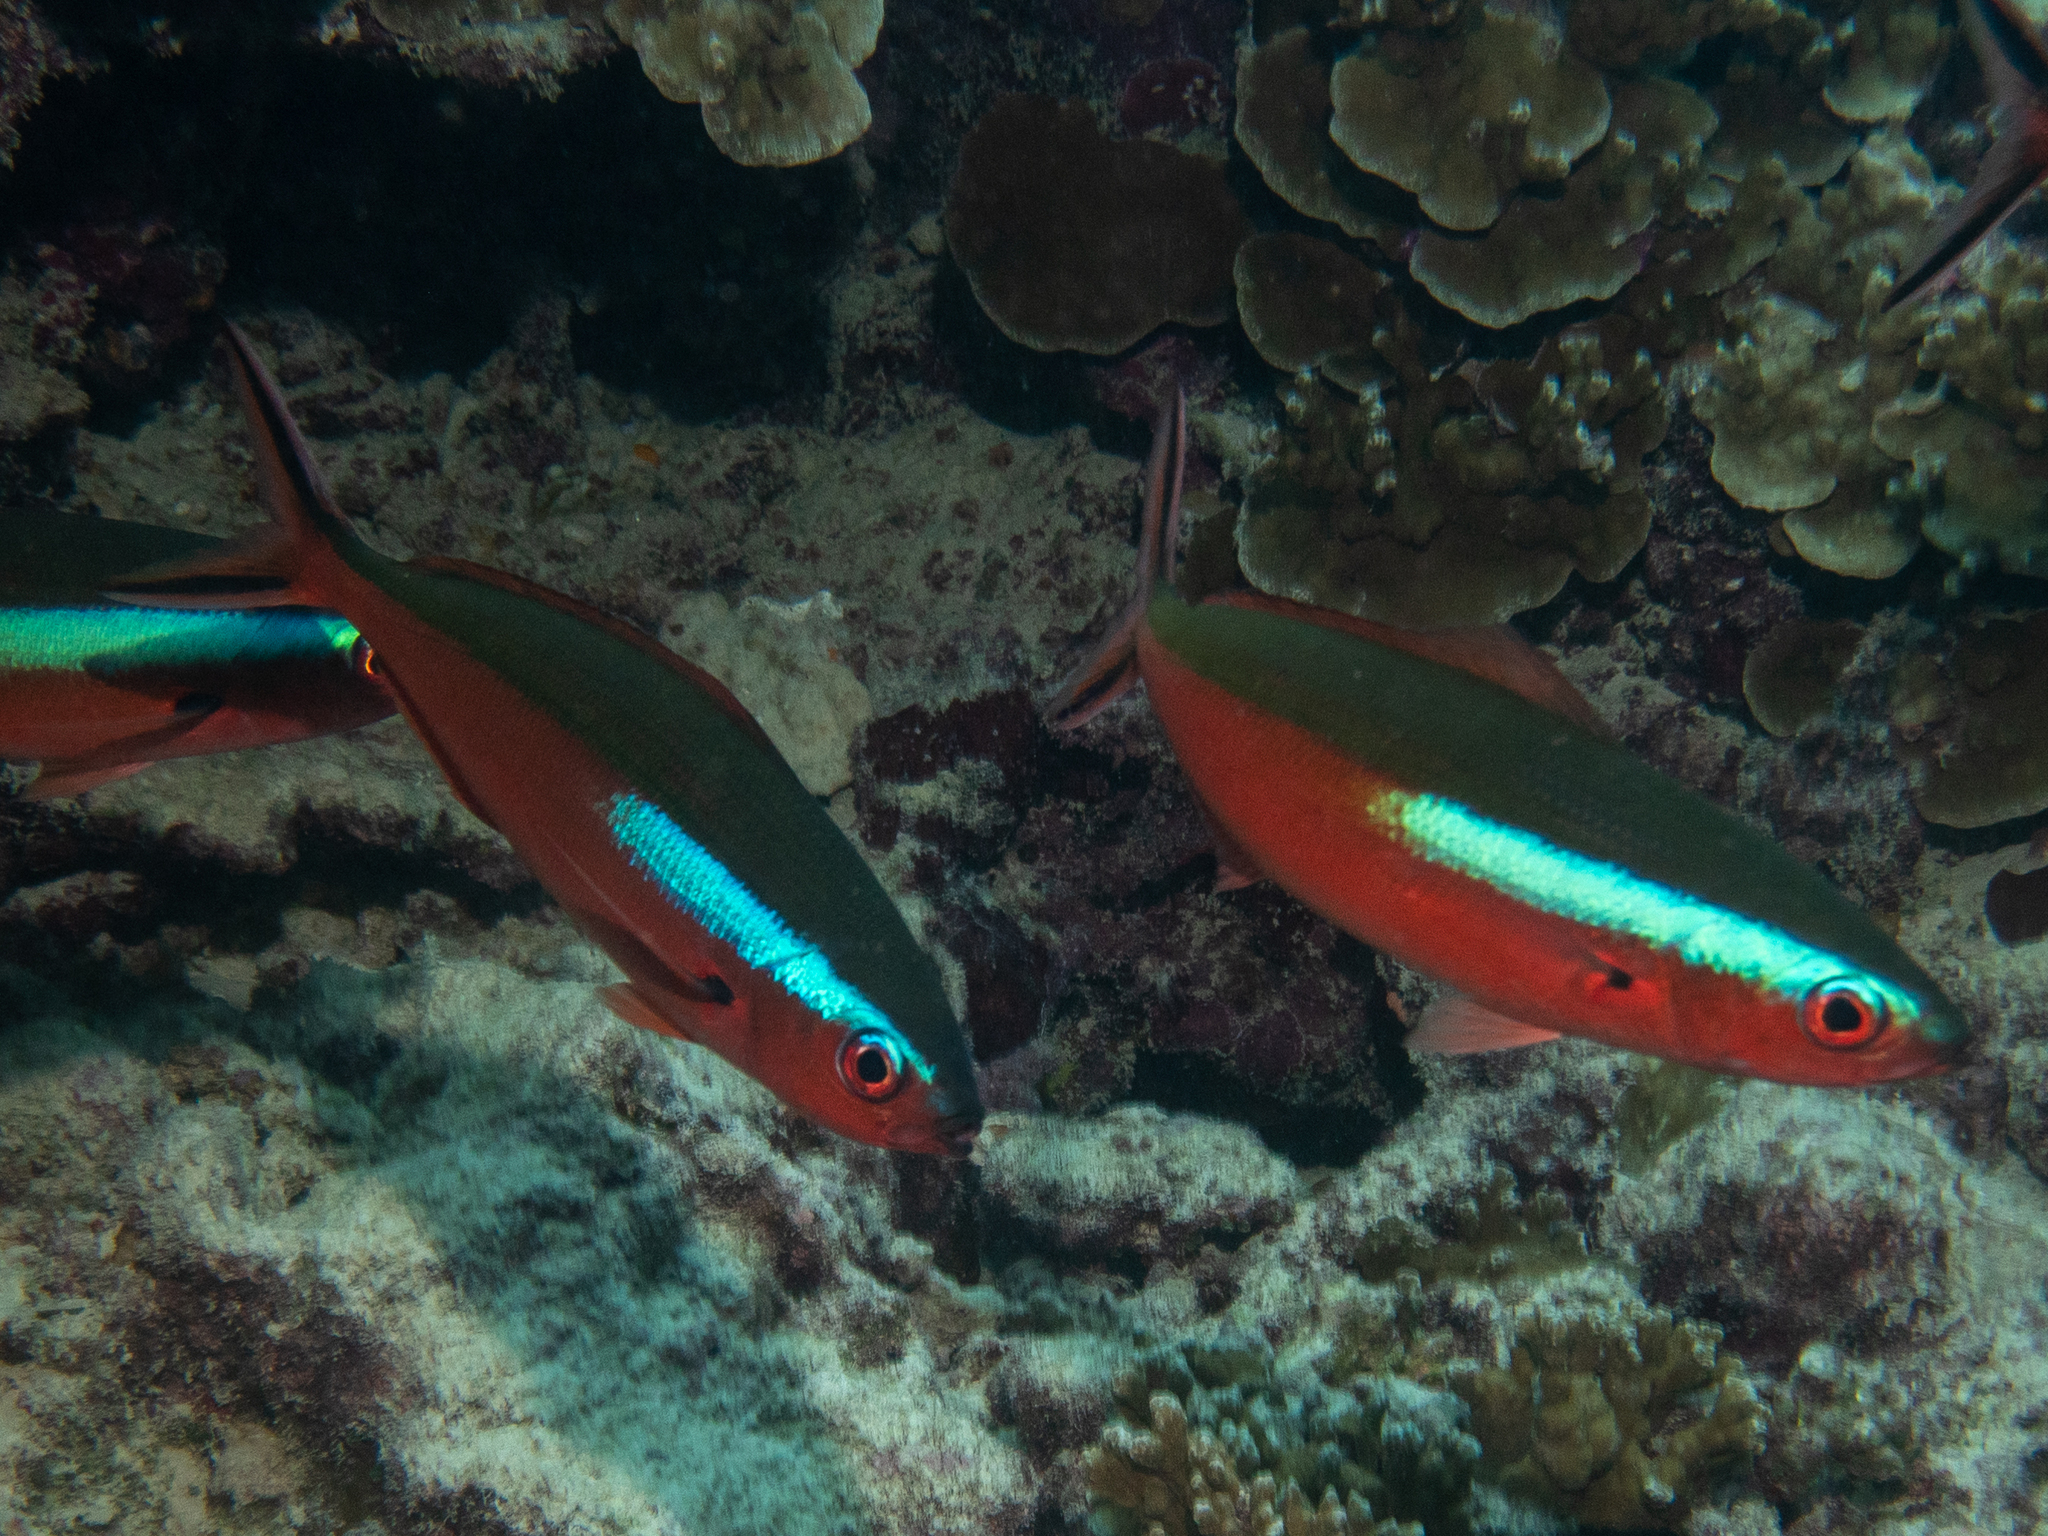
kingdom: Animalia
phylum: Chordata
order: Perciformes
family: Caesionidae
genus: Pterocaesio
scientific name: Pterocaesio tile
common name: Dark-banded fusilier
